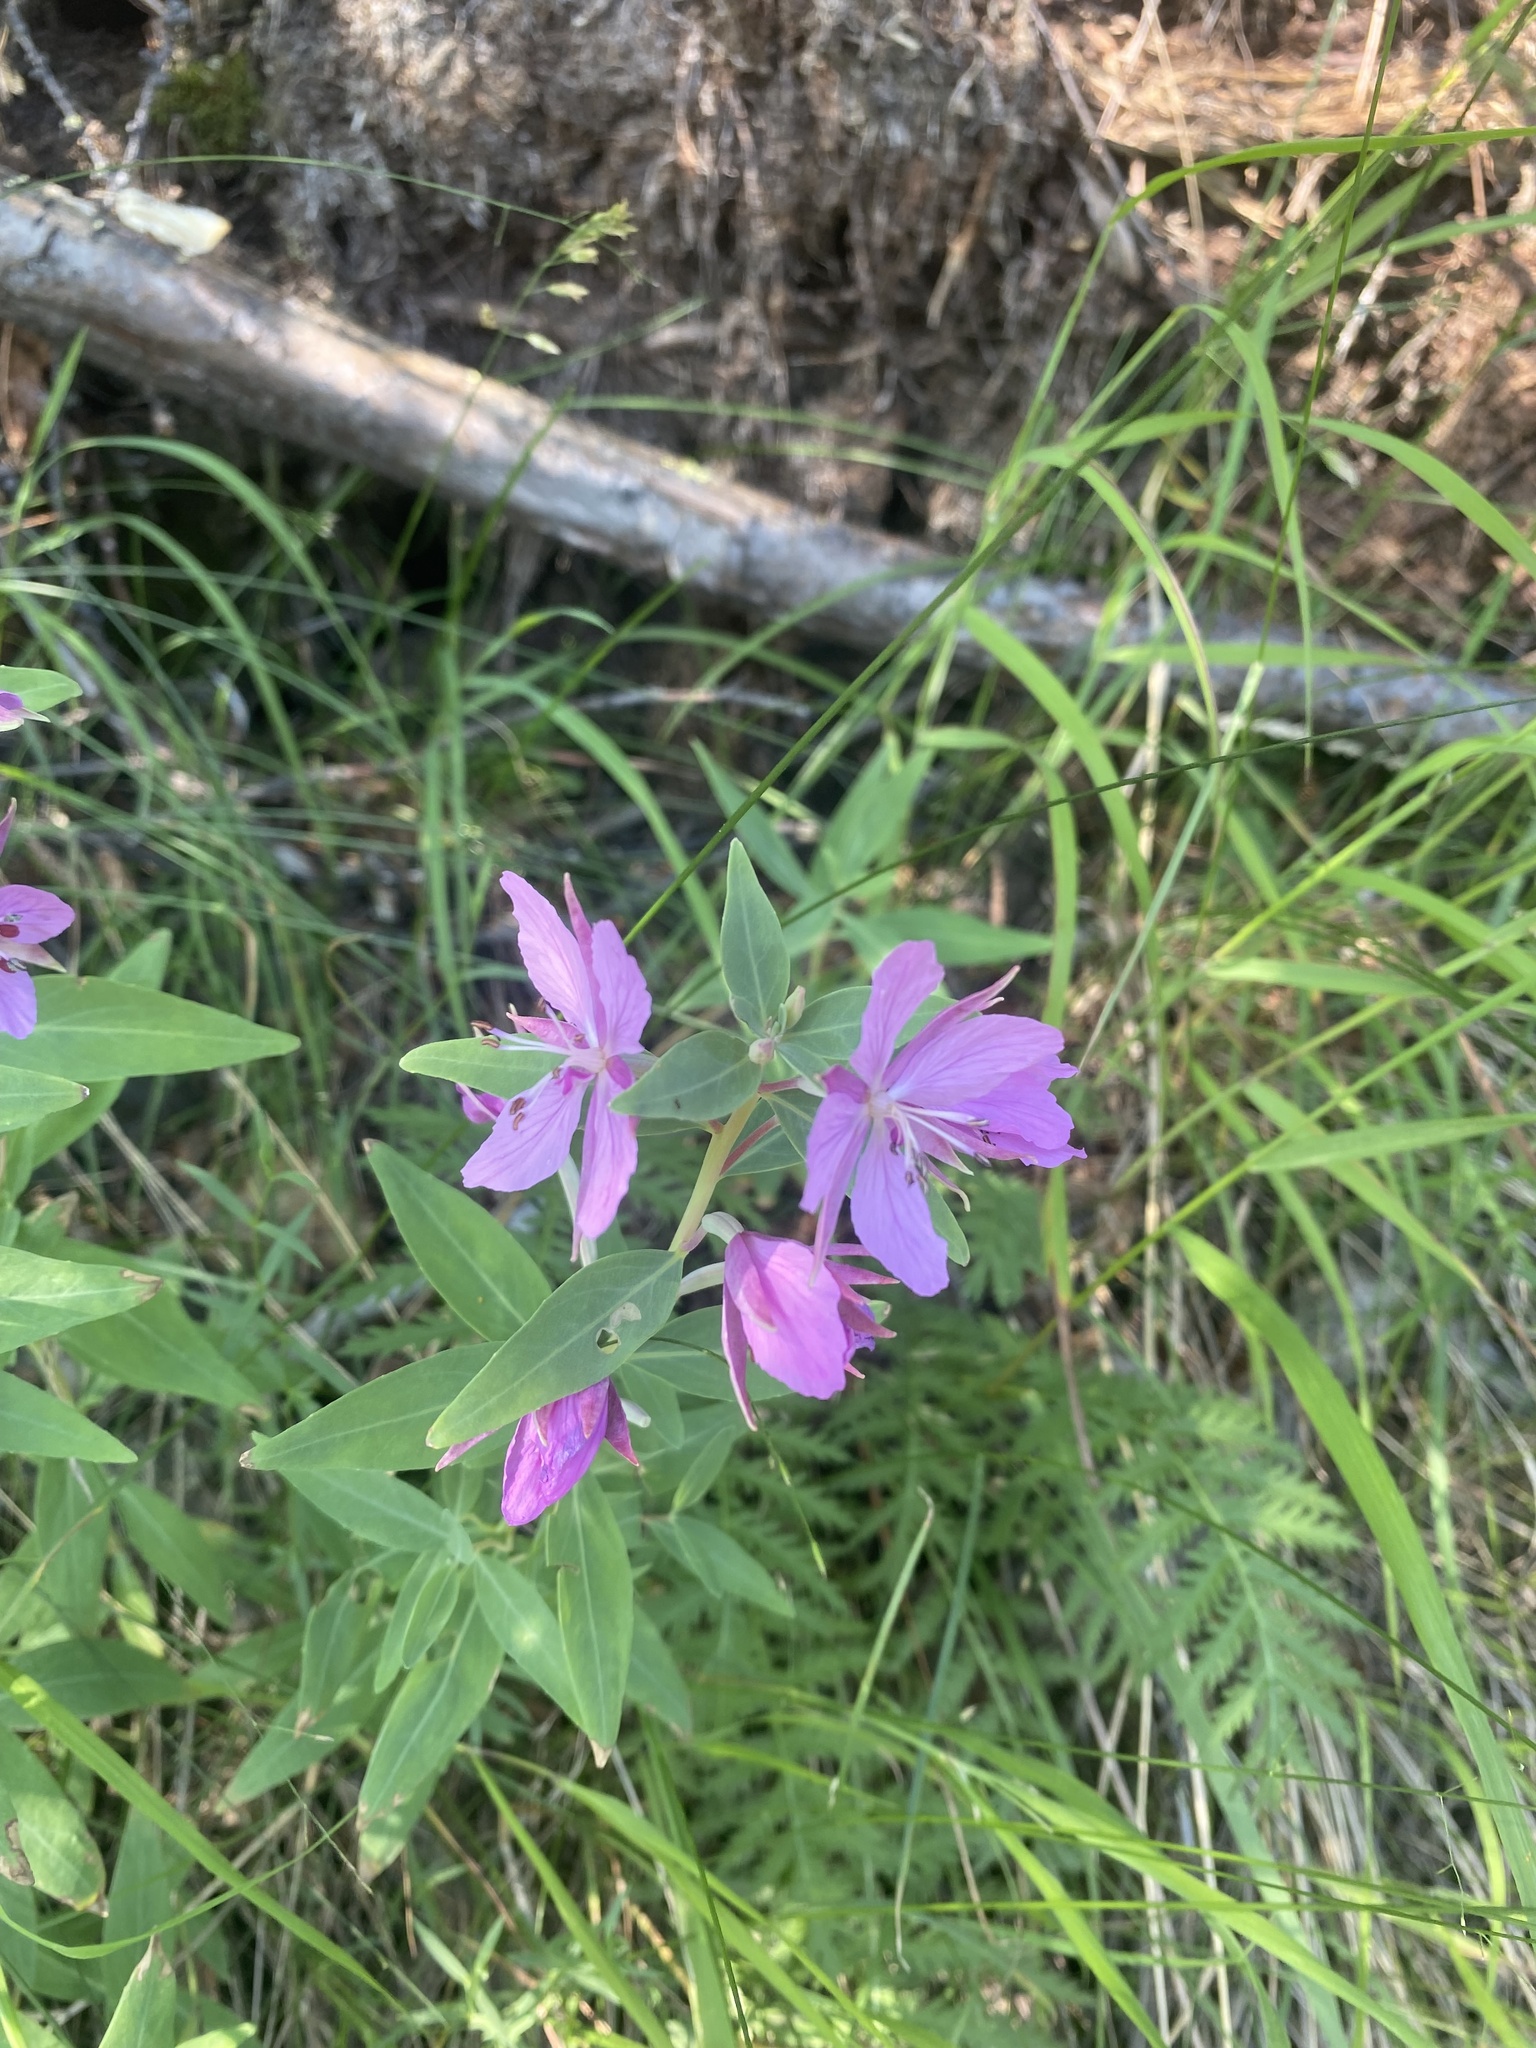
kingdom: Plantae
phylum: Tracheophyta
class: Magnoliopsida
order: Myrtales
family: Onagraceae
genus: Chamaenerion
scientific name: Chamaenerion latifolium
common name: Dwarf fireweed
